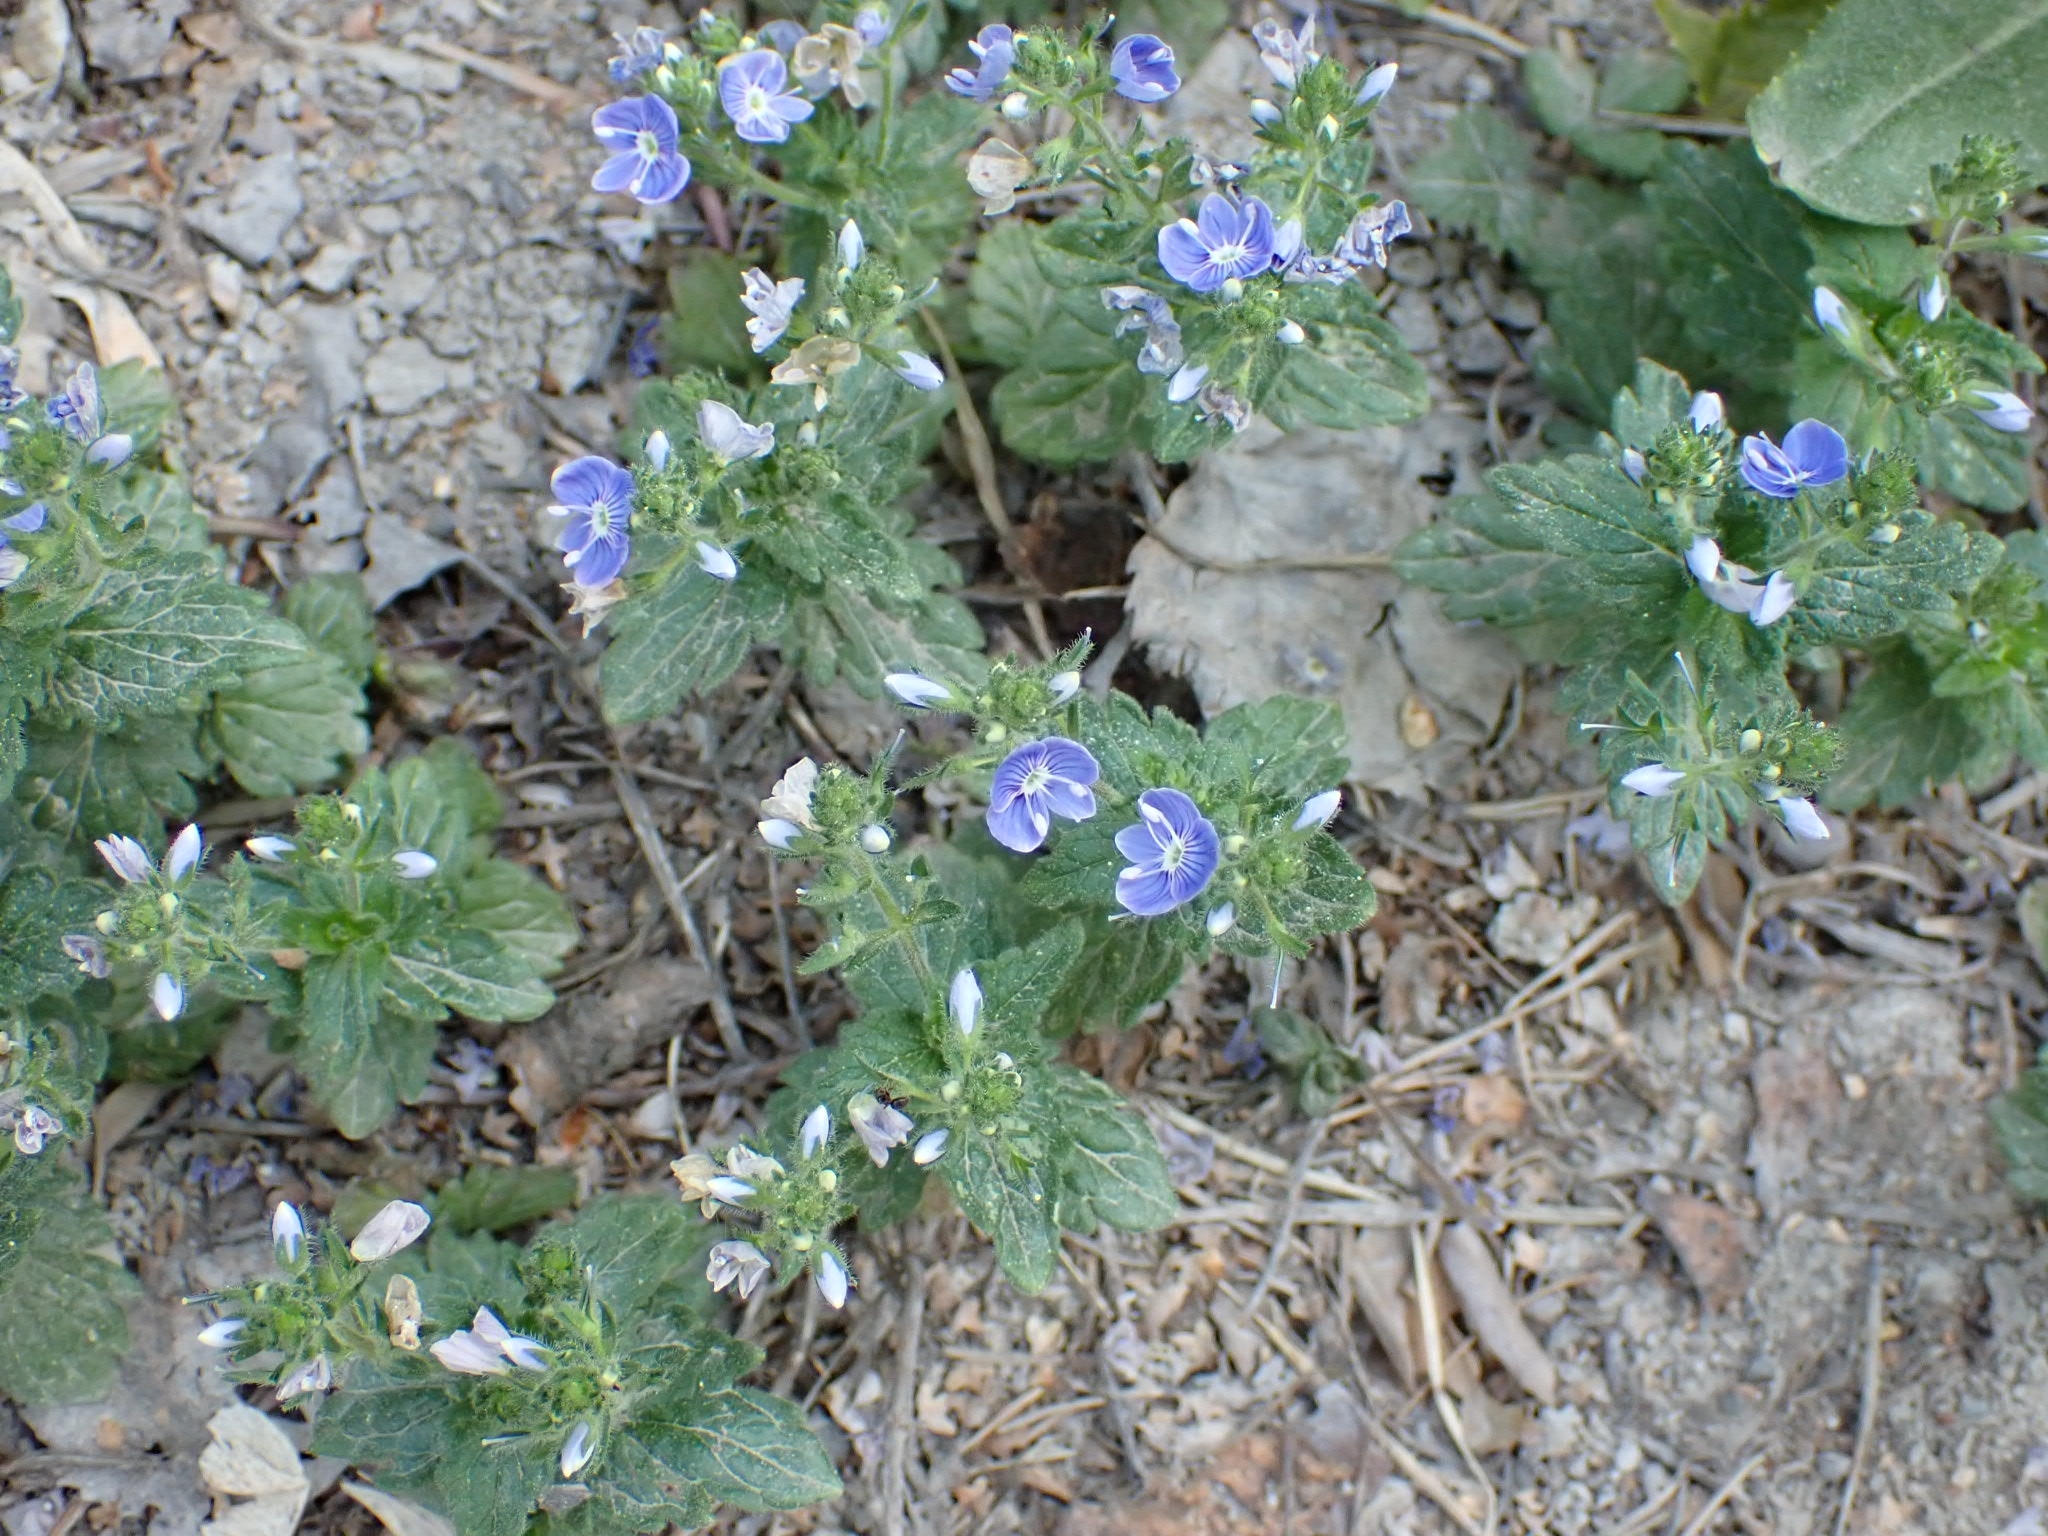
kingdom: Plantae
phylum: Tracheophyta
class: Magnoliopsida
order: Lamiales
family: Plantaginaceae
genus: Veronica
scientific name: Veronica chamaedrys
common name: Germander speedwell
